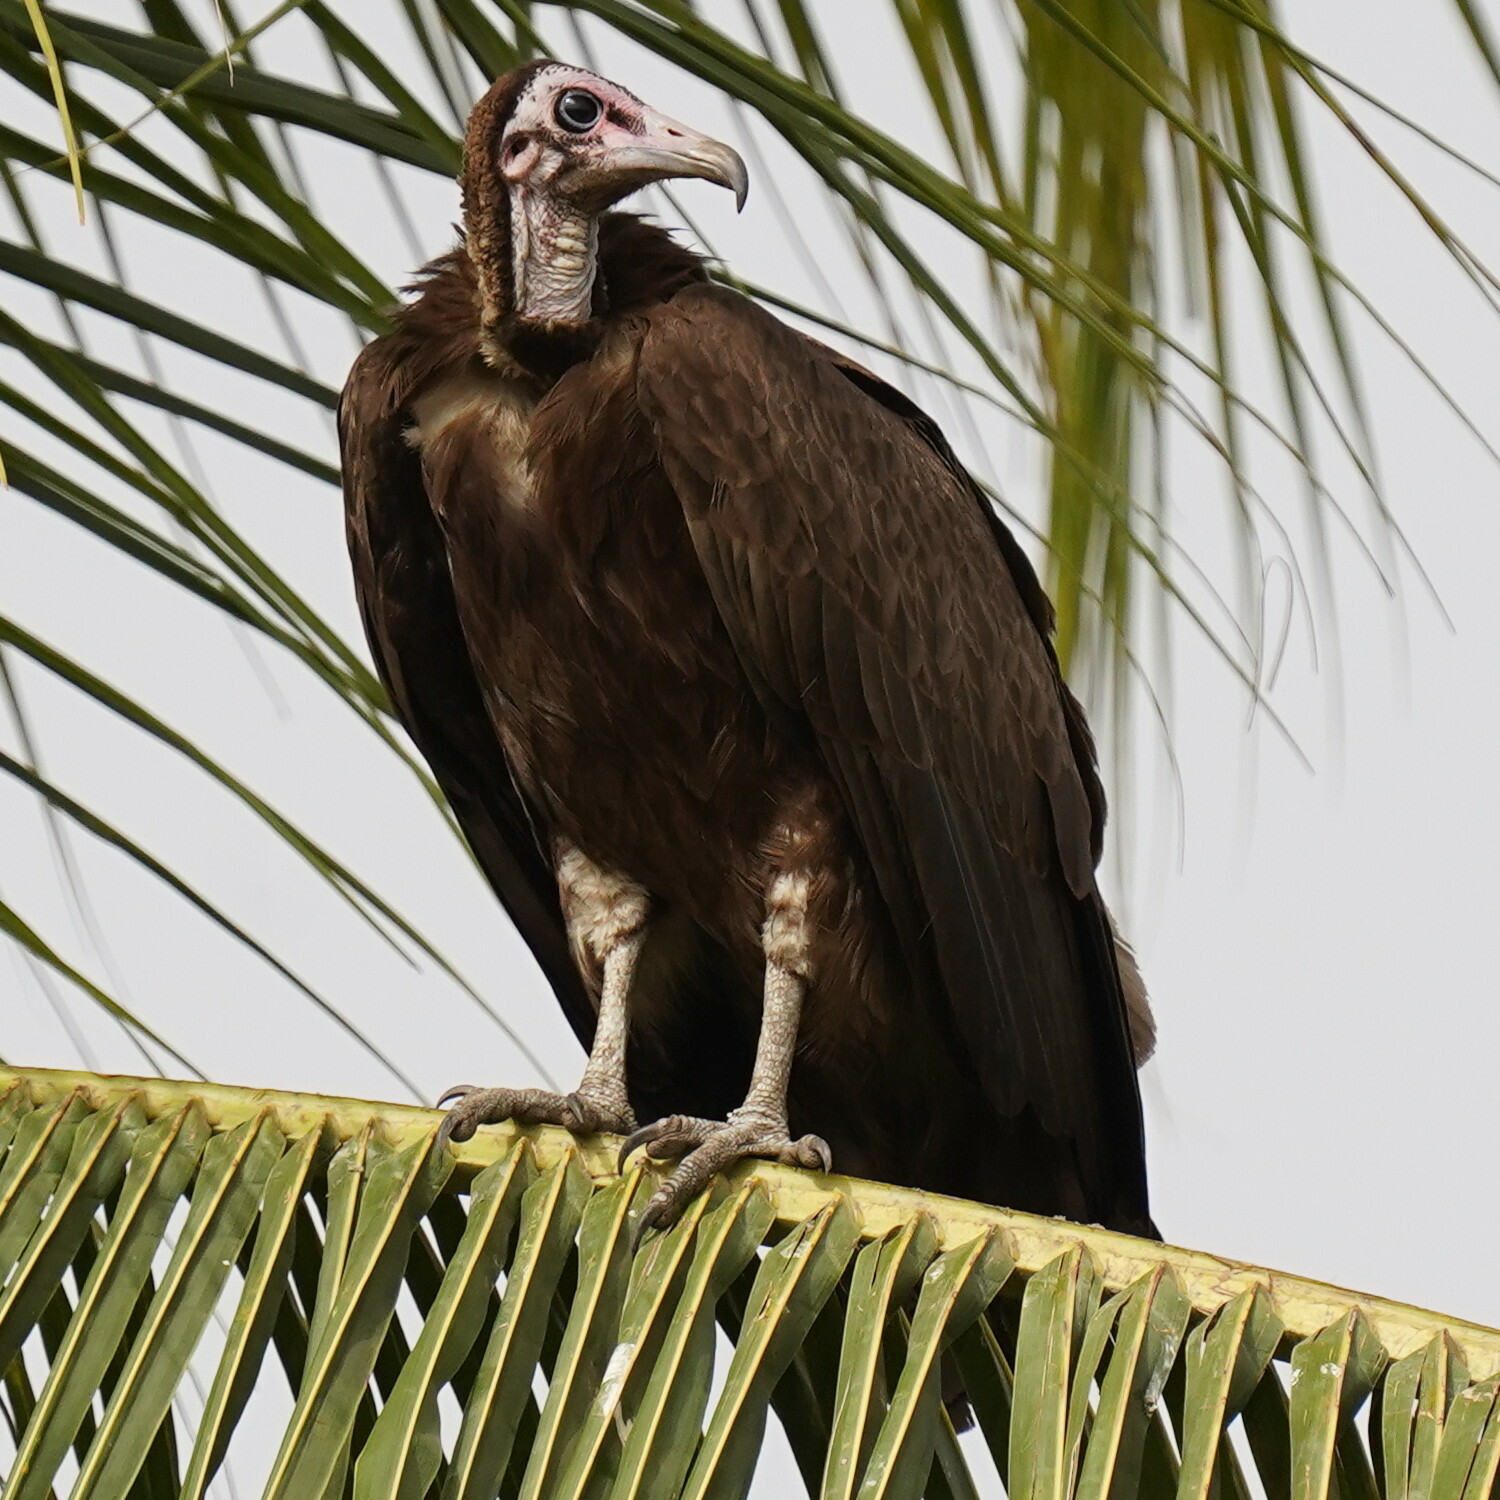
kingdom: Animalia
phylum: Chordata
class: Aves
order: Accipitriformes
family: Accipitridae
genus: Necrosyrtes
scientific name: Necrosyrtes monachus
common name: Hooded vulture
